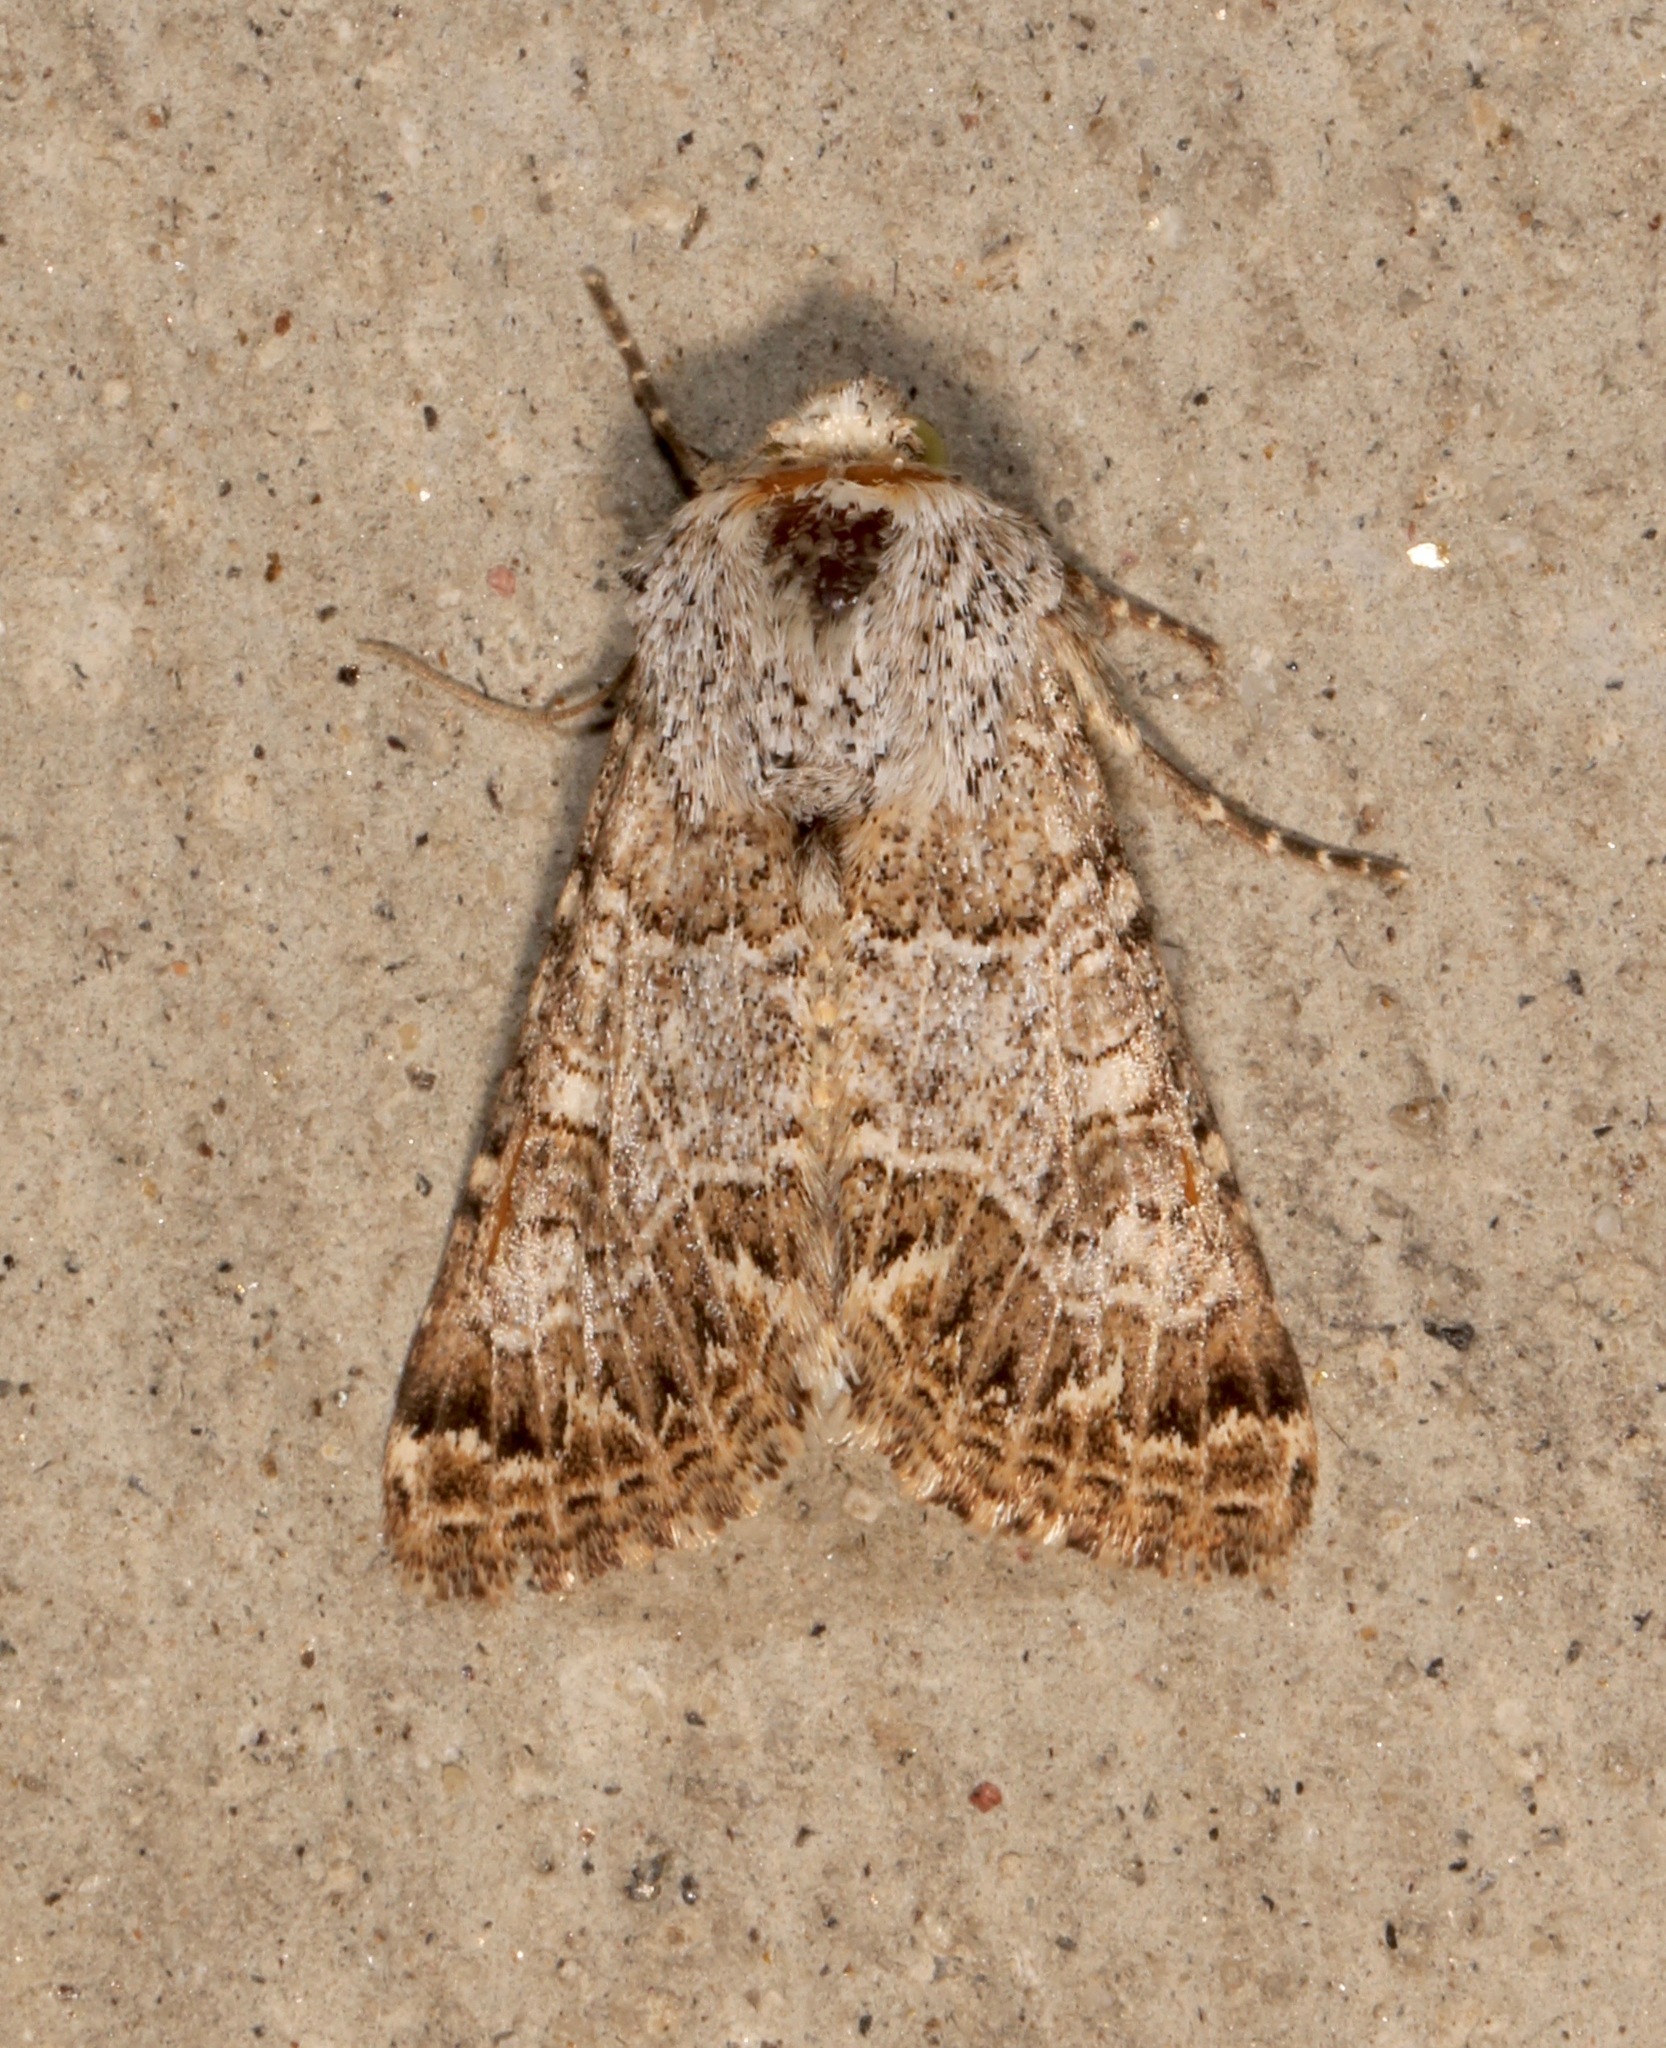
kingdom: Animalia
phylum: Arthropoda
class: Insecta
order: Lepidoptera
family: Noctuidae
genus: Schinia
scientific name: Schinia deserticola
